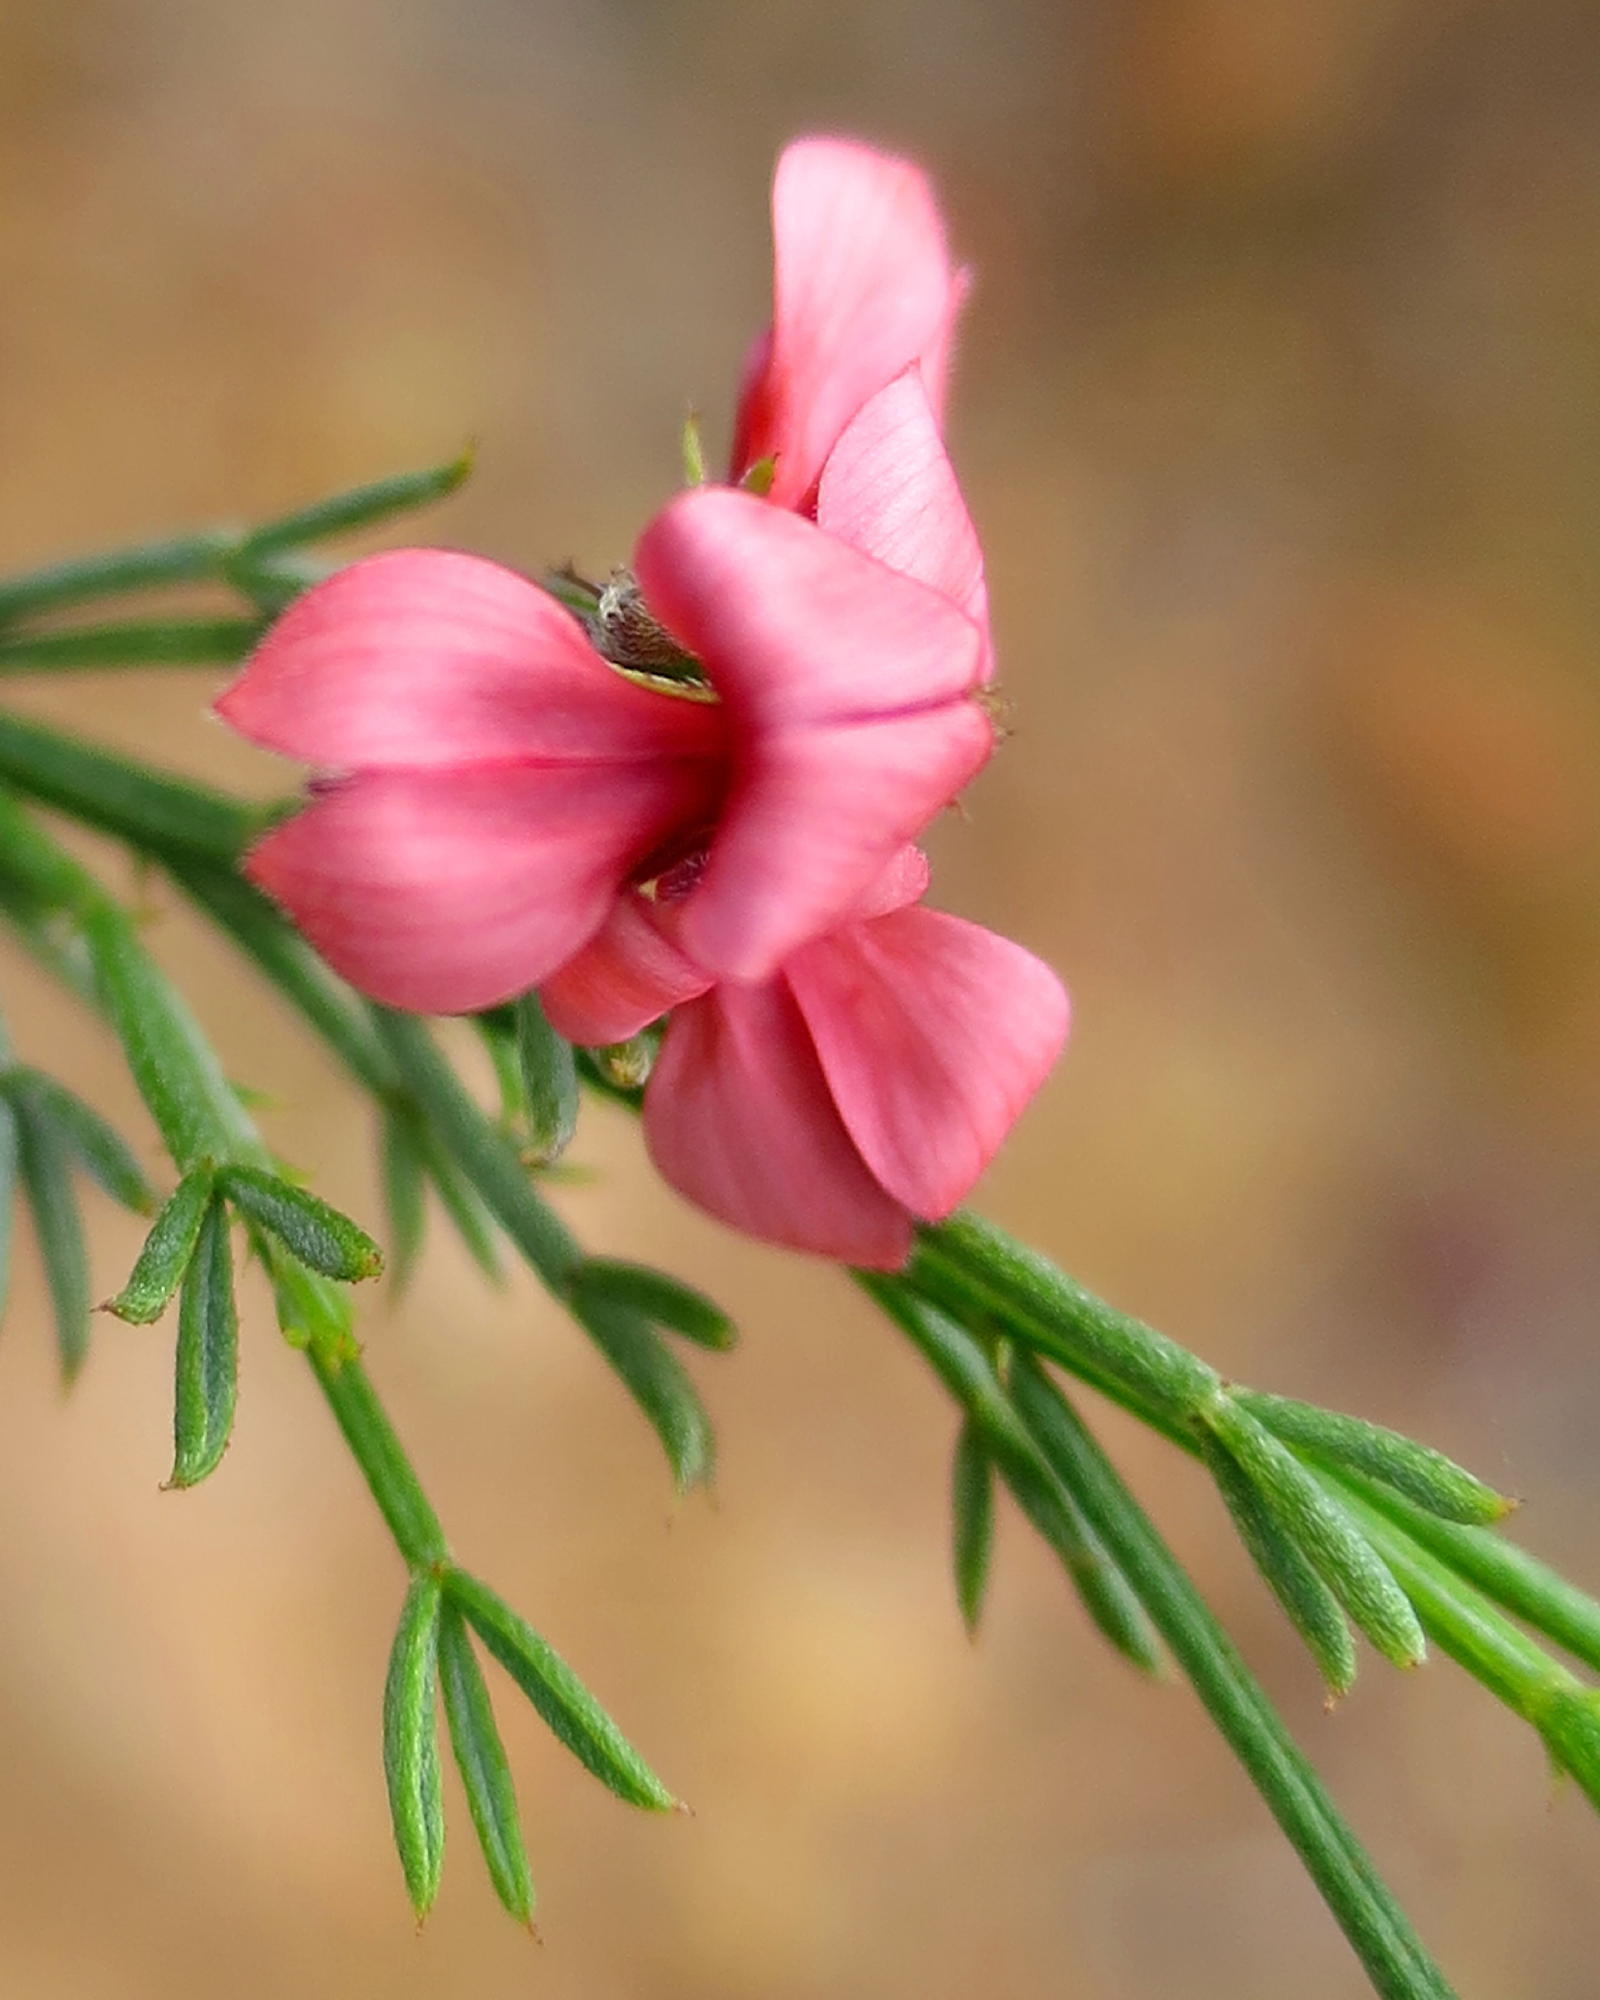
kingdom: Plantae
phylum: Tracheophyta
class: Magnoliopsida
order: Fabales
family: Fabaceae
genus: Indigofera
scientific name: Indigofera heterophylla
